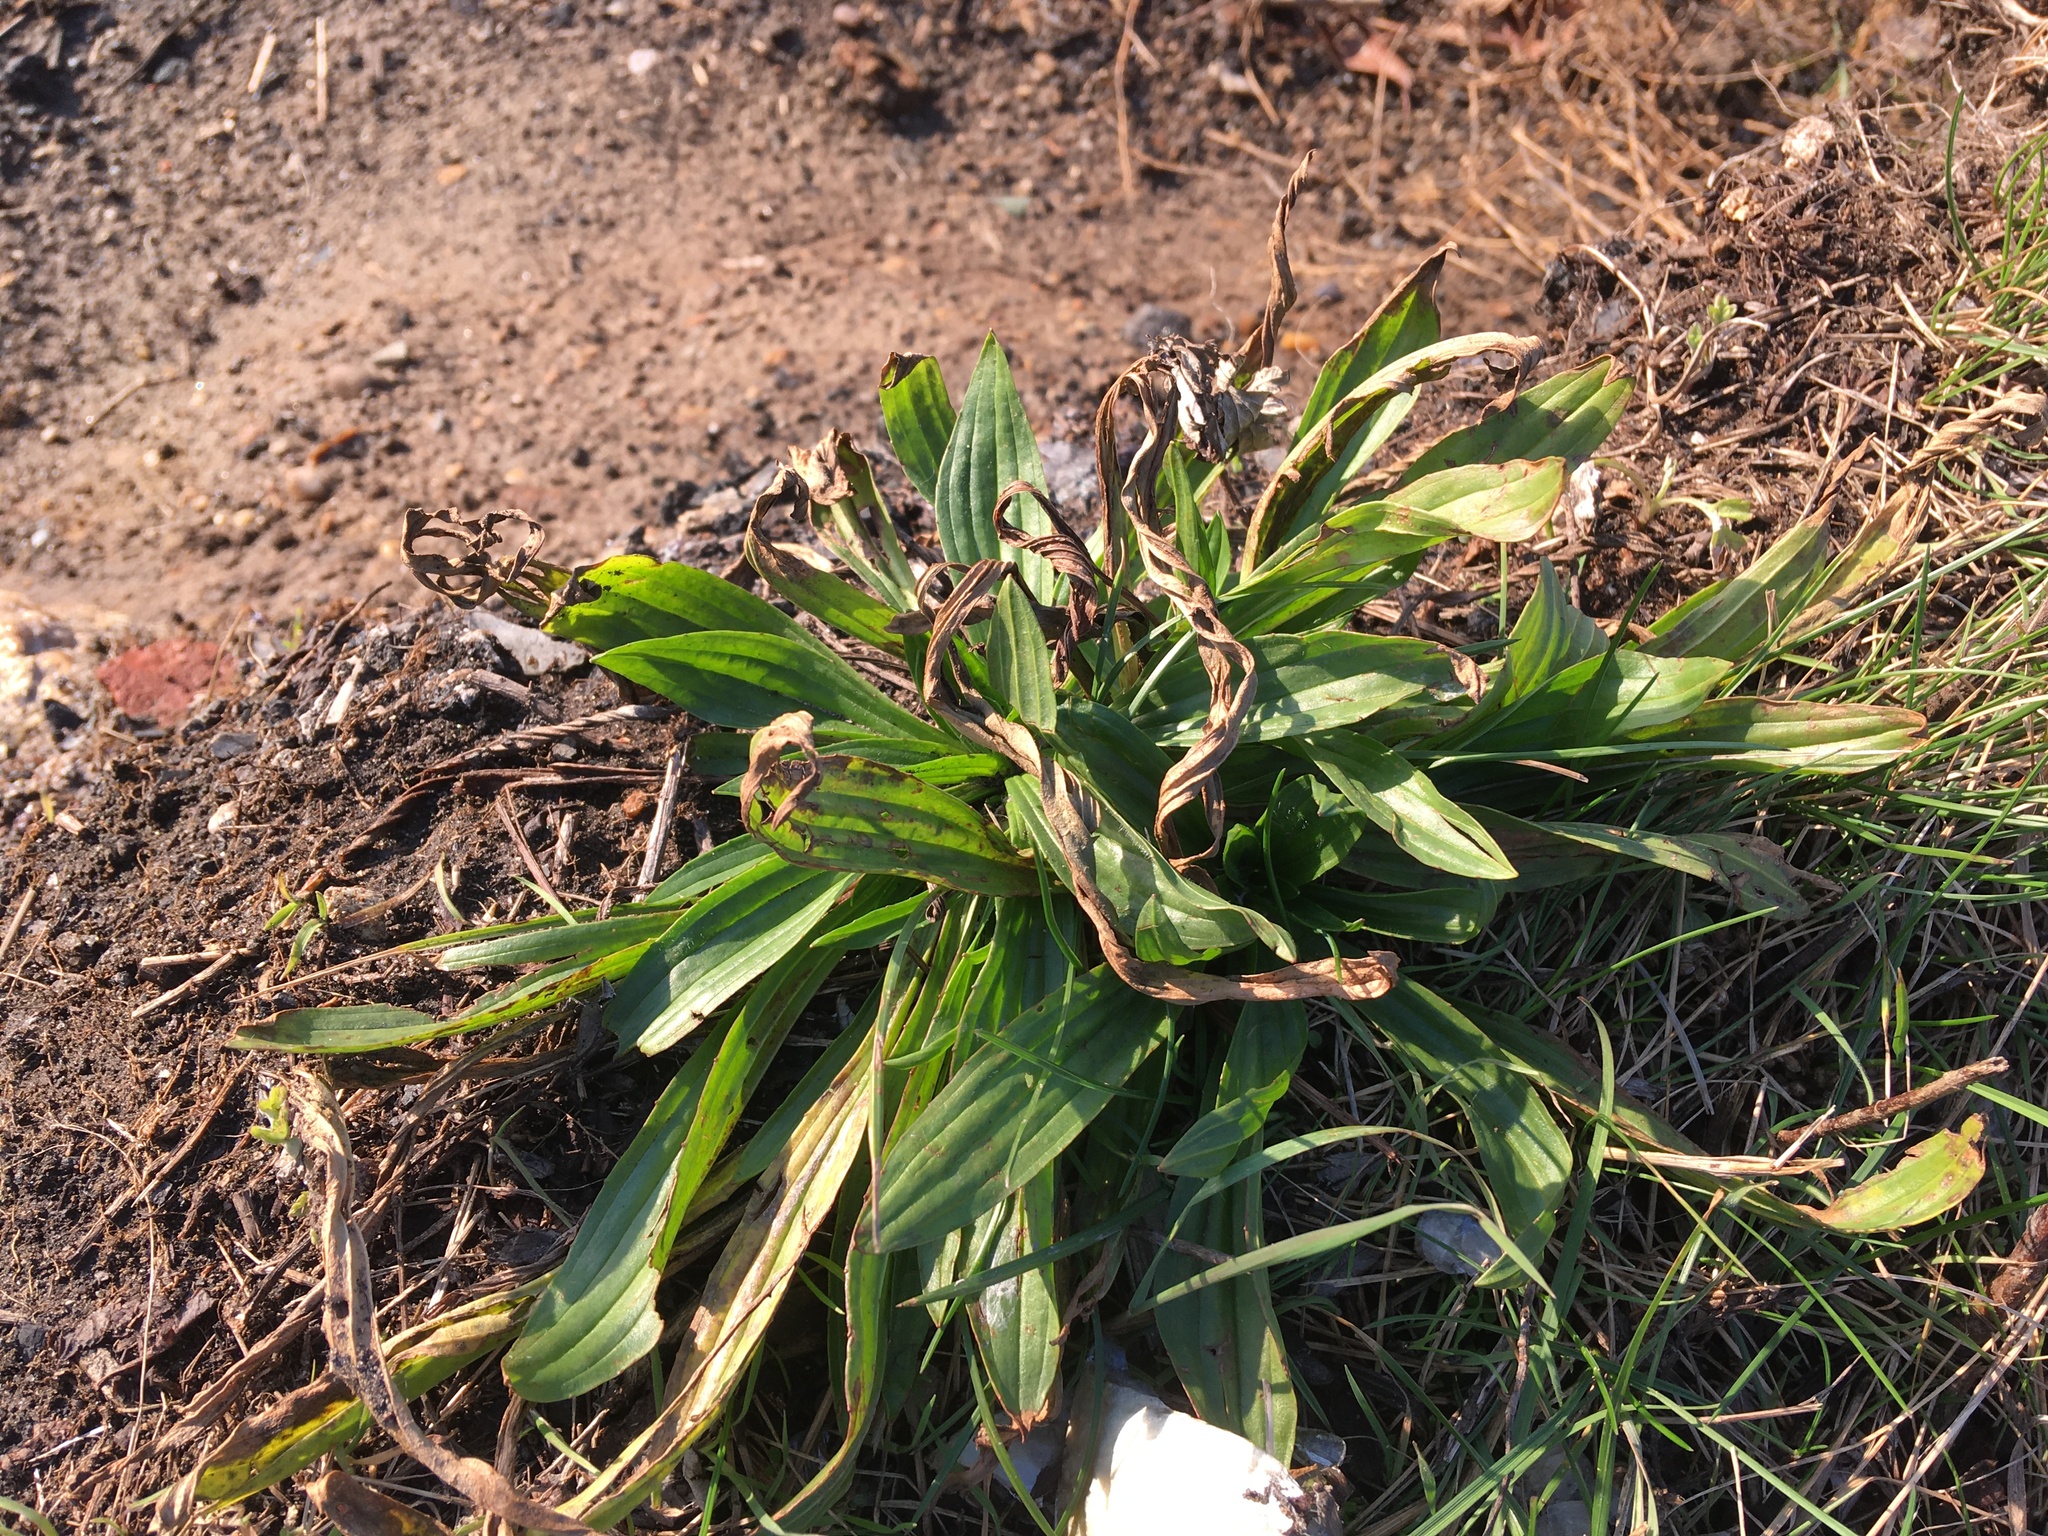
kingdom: Plantae
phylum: Tracheophyta
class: Magnoliopsida
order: Lamiales
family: Plantaginaceae
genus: Plantago
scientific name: Plantago lanceolata
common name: Ribwort plantain
